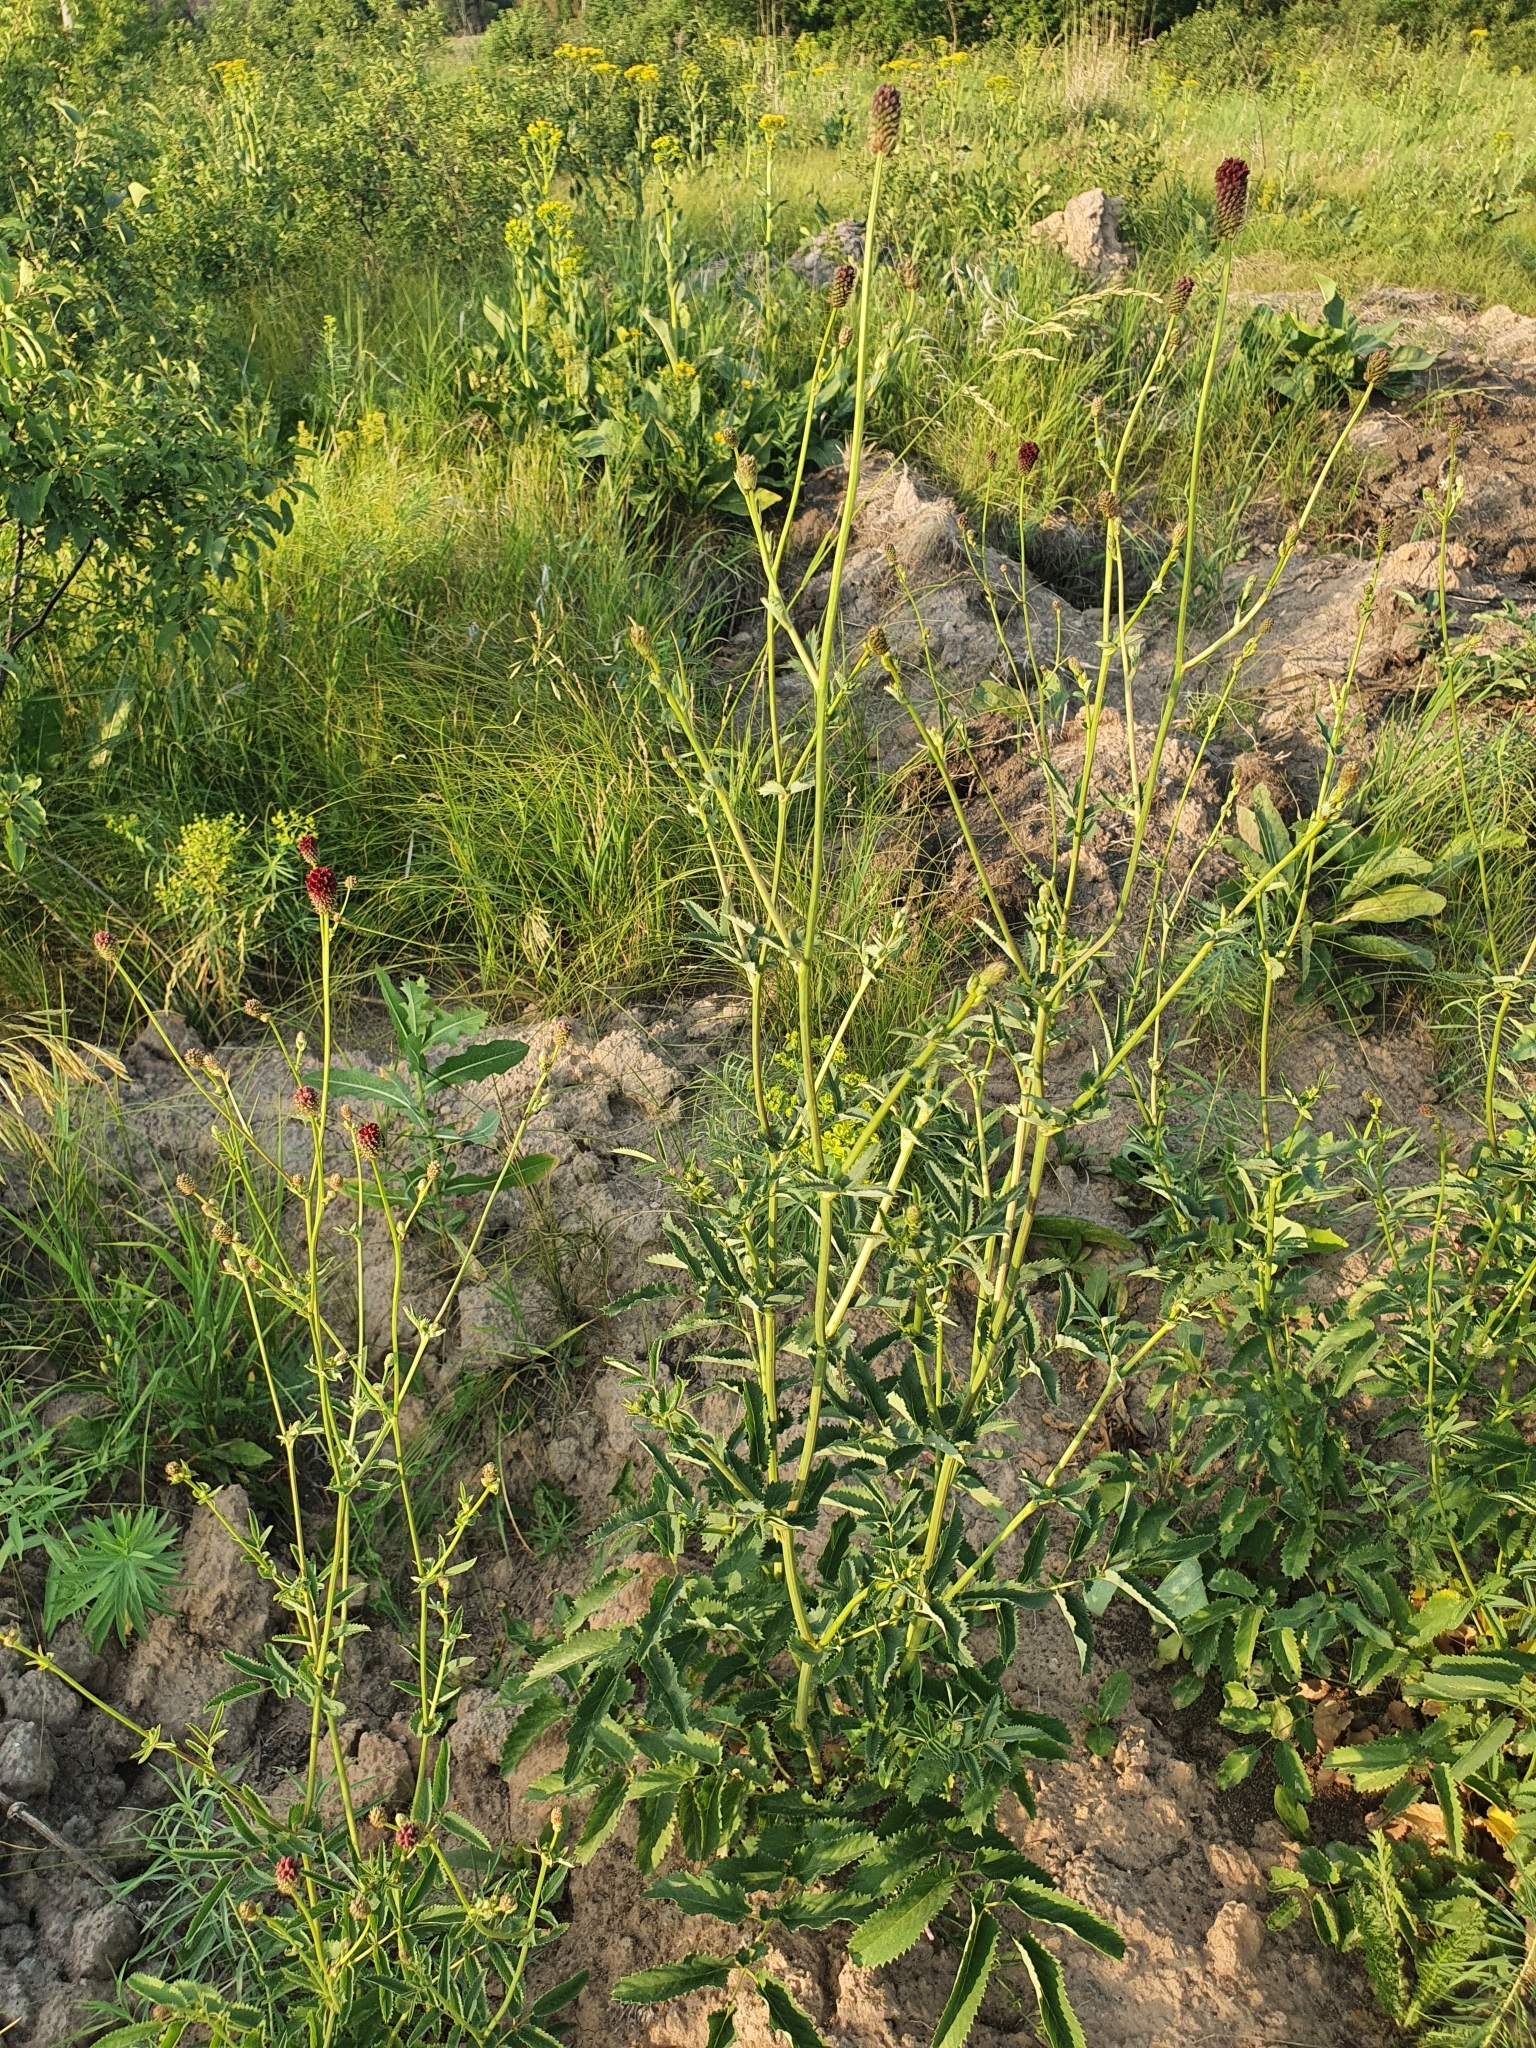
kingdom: Plantae
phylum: Tracheophyta
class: Magnoliopsida
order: Rosales
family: Rosaceae
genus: Sanguisorba
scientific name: Sanguisorba officinalis
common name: Great burnet
